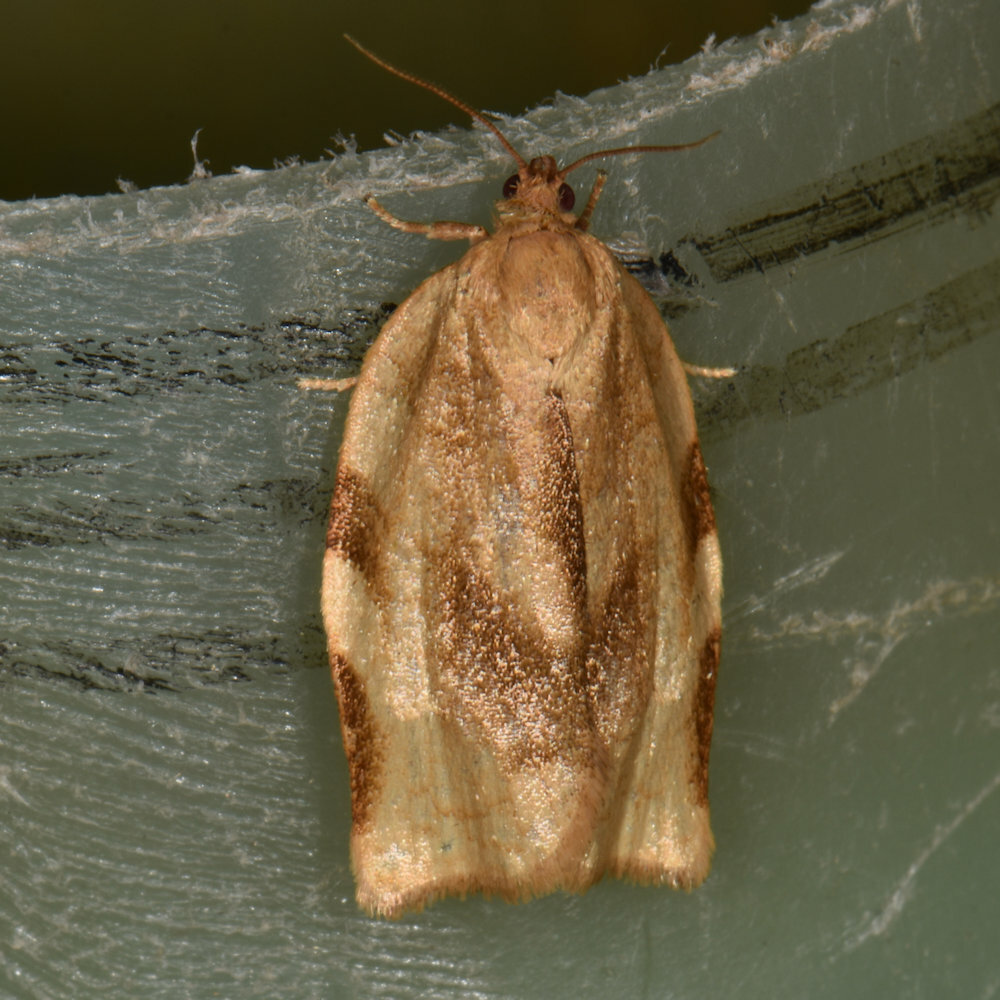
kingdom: Animalia
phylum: Arthropoda
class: Insecta
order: Lepidoptera
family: Tortricidae
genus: Choristoneura
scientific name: Choristoneura fractivittana
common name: Broken-banded leafroller moth
